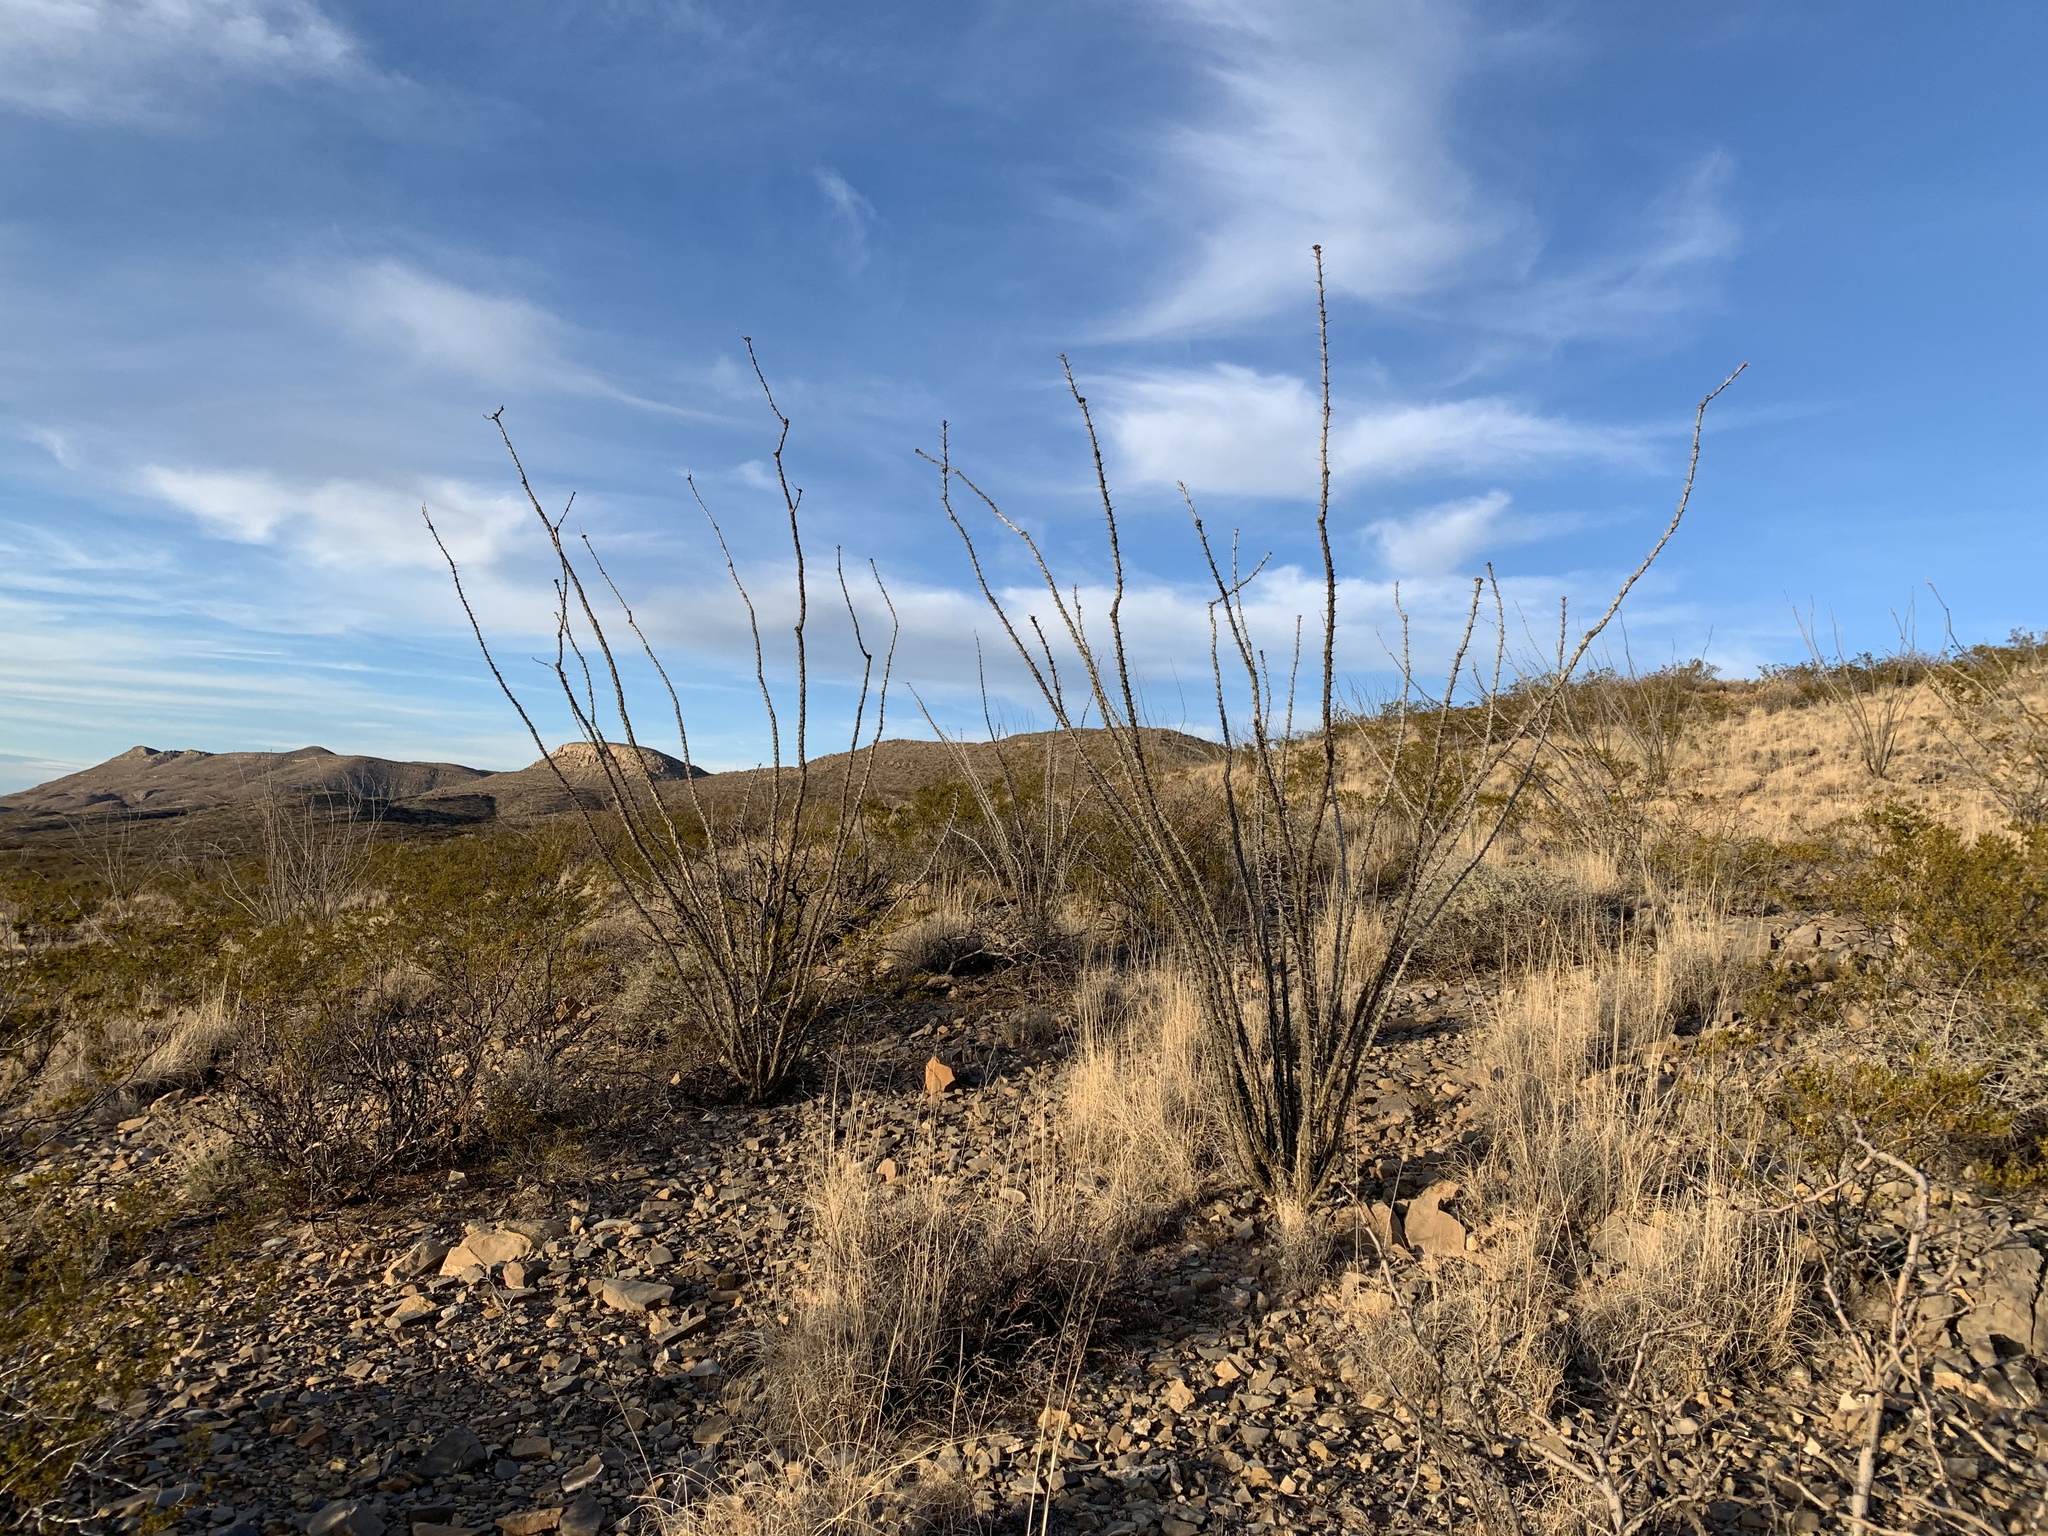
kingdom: Plantae
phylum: Tracheophyta
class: Magnoliopsida
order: Ericales
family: Fouquieriaceae
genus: Fouquieria
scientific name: Fouquieria splendens
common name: Vine-cactus
